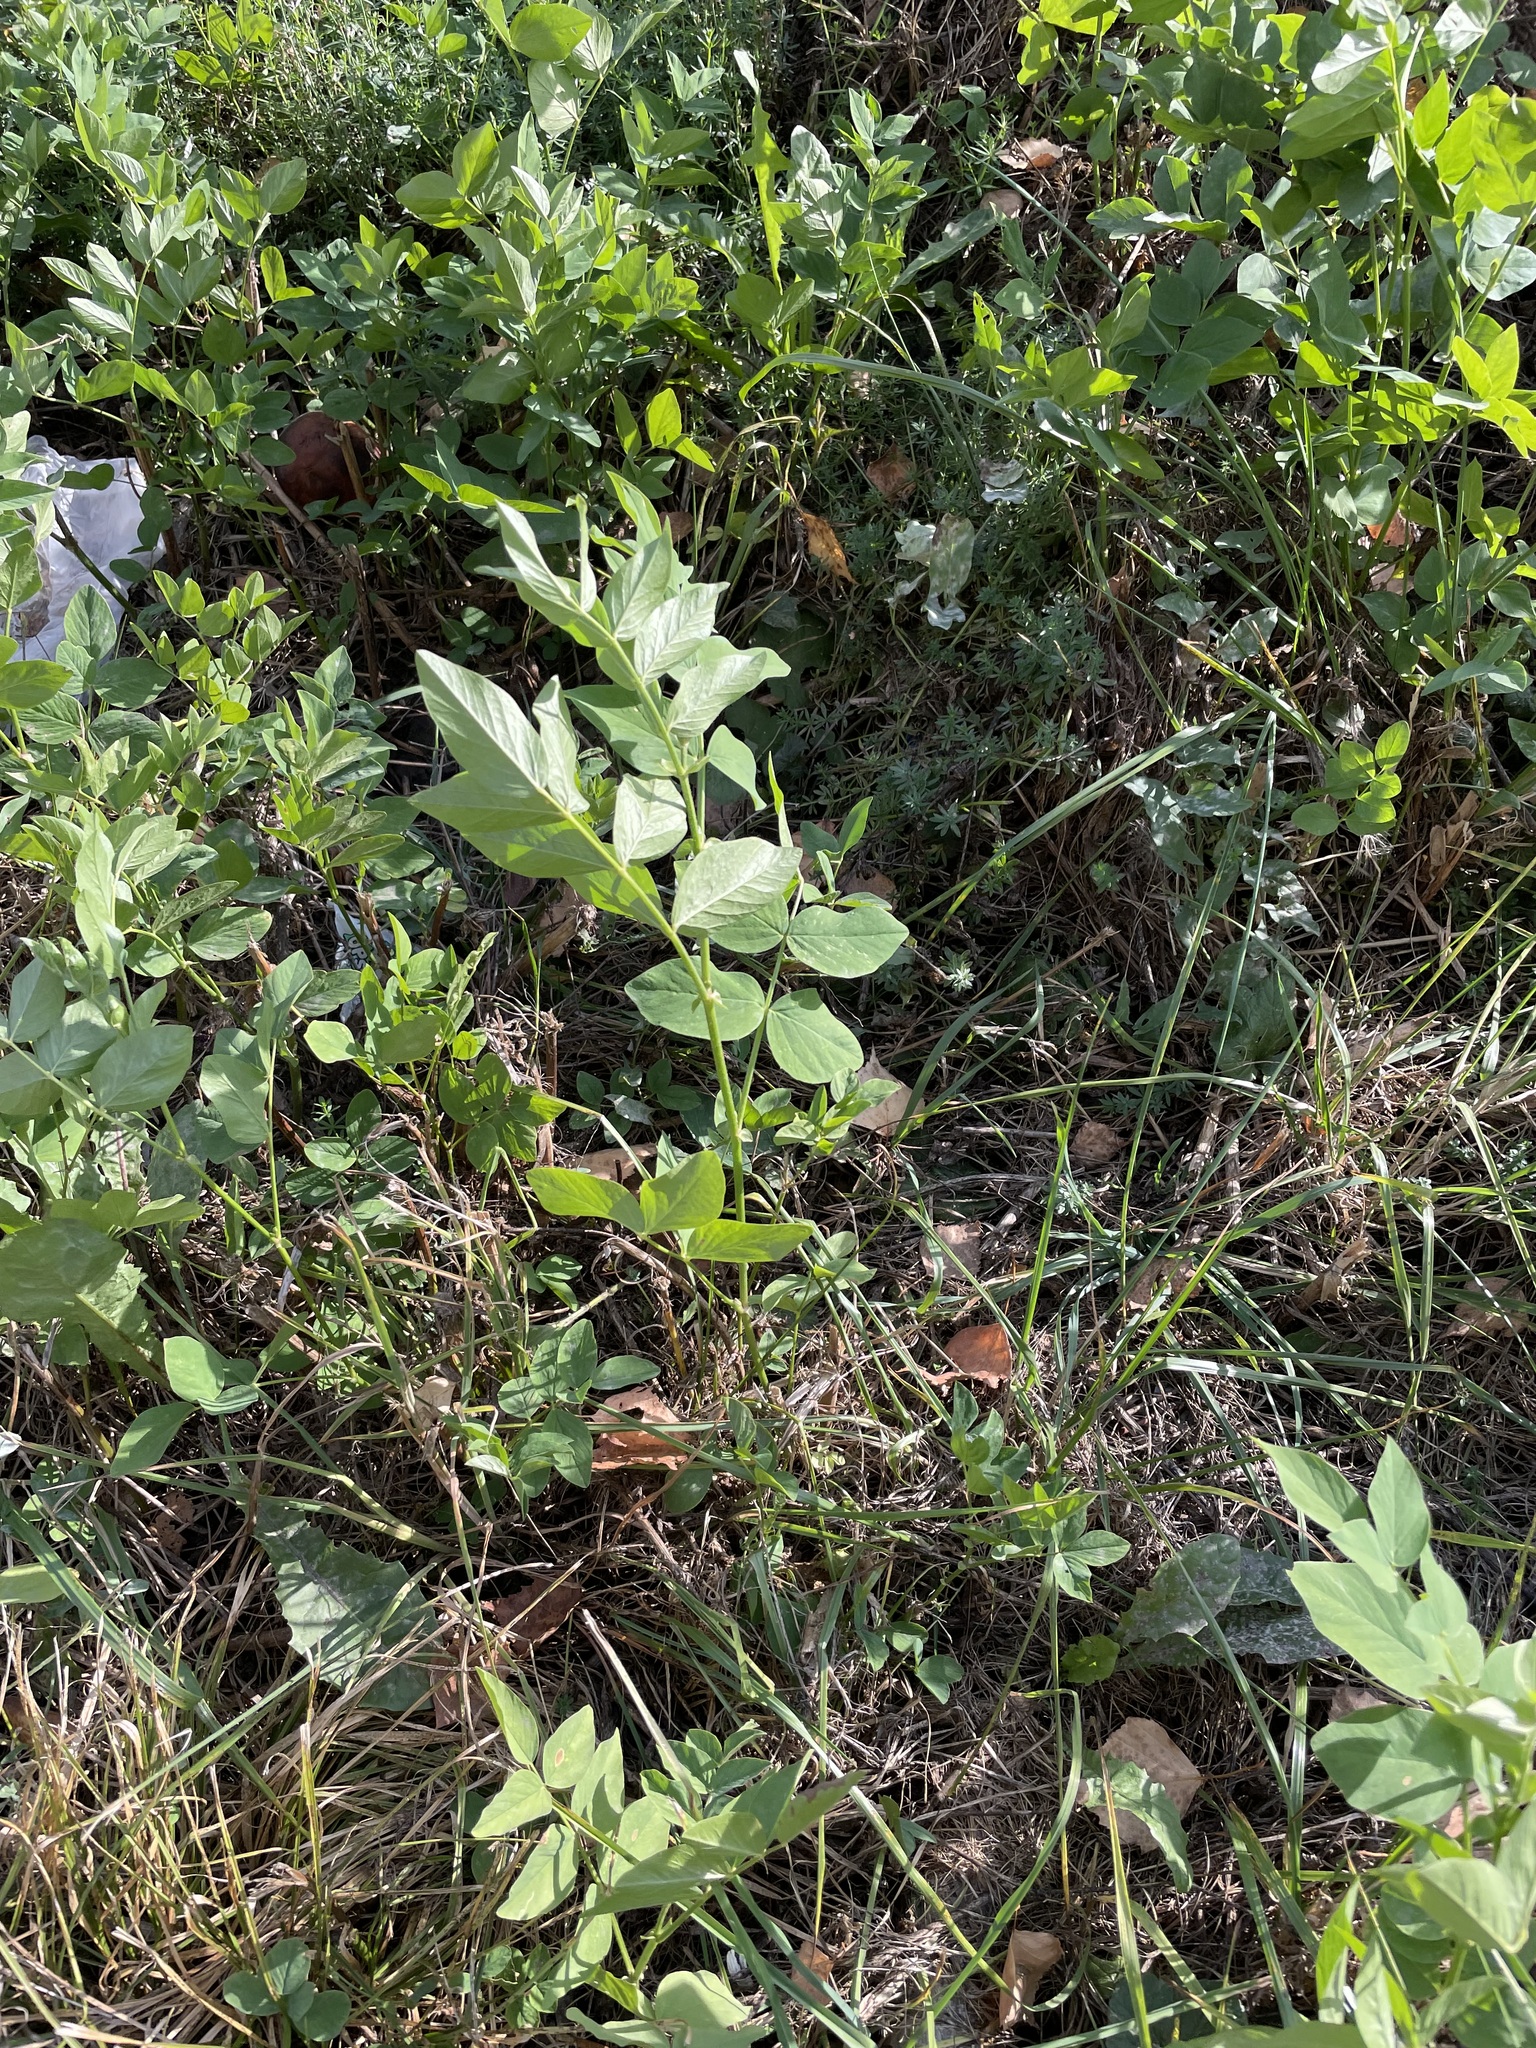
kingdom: Plantae
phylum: Tracheophyta
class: Magnoliopsida
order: Fabales
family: Fabaceae
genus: Galega
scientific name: Galega orientalis
